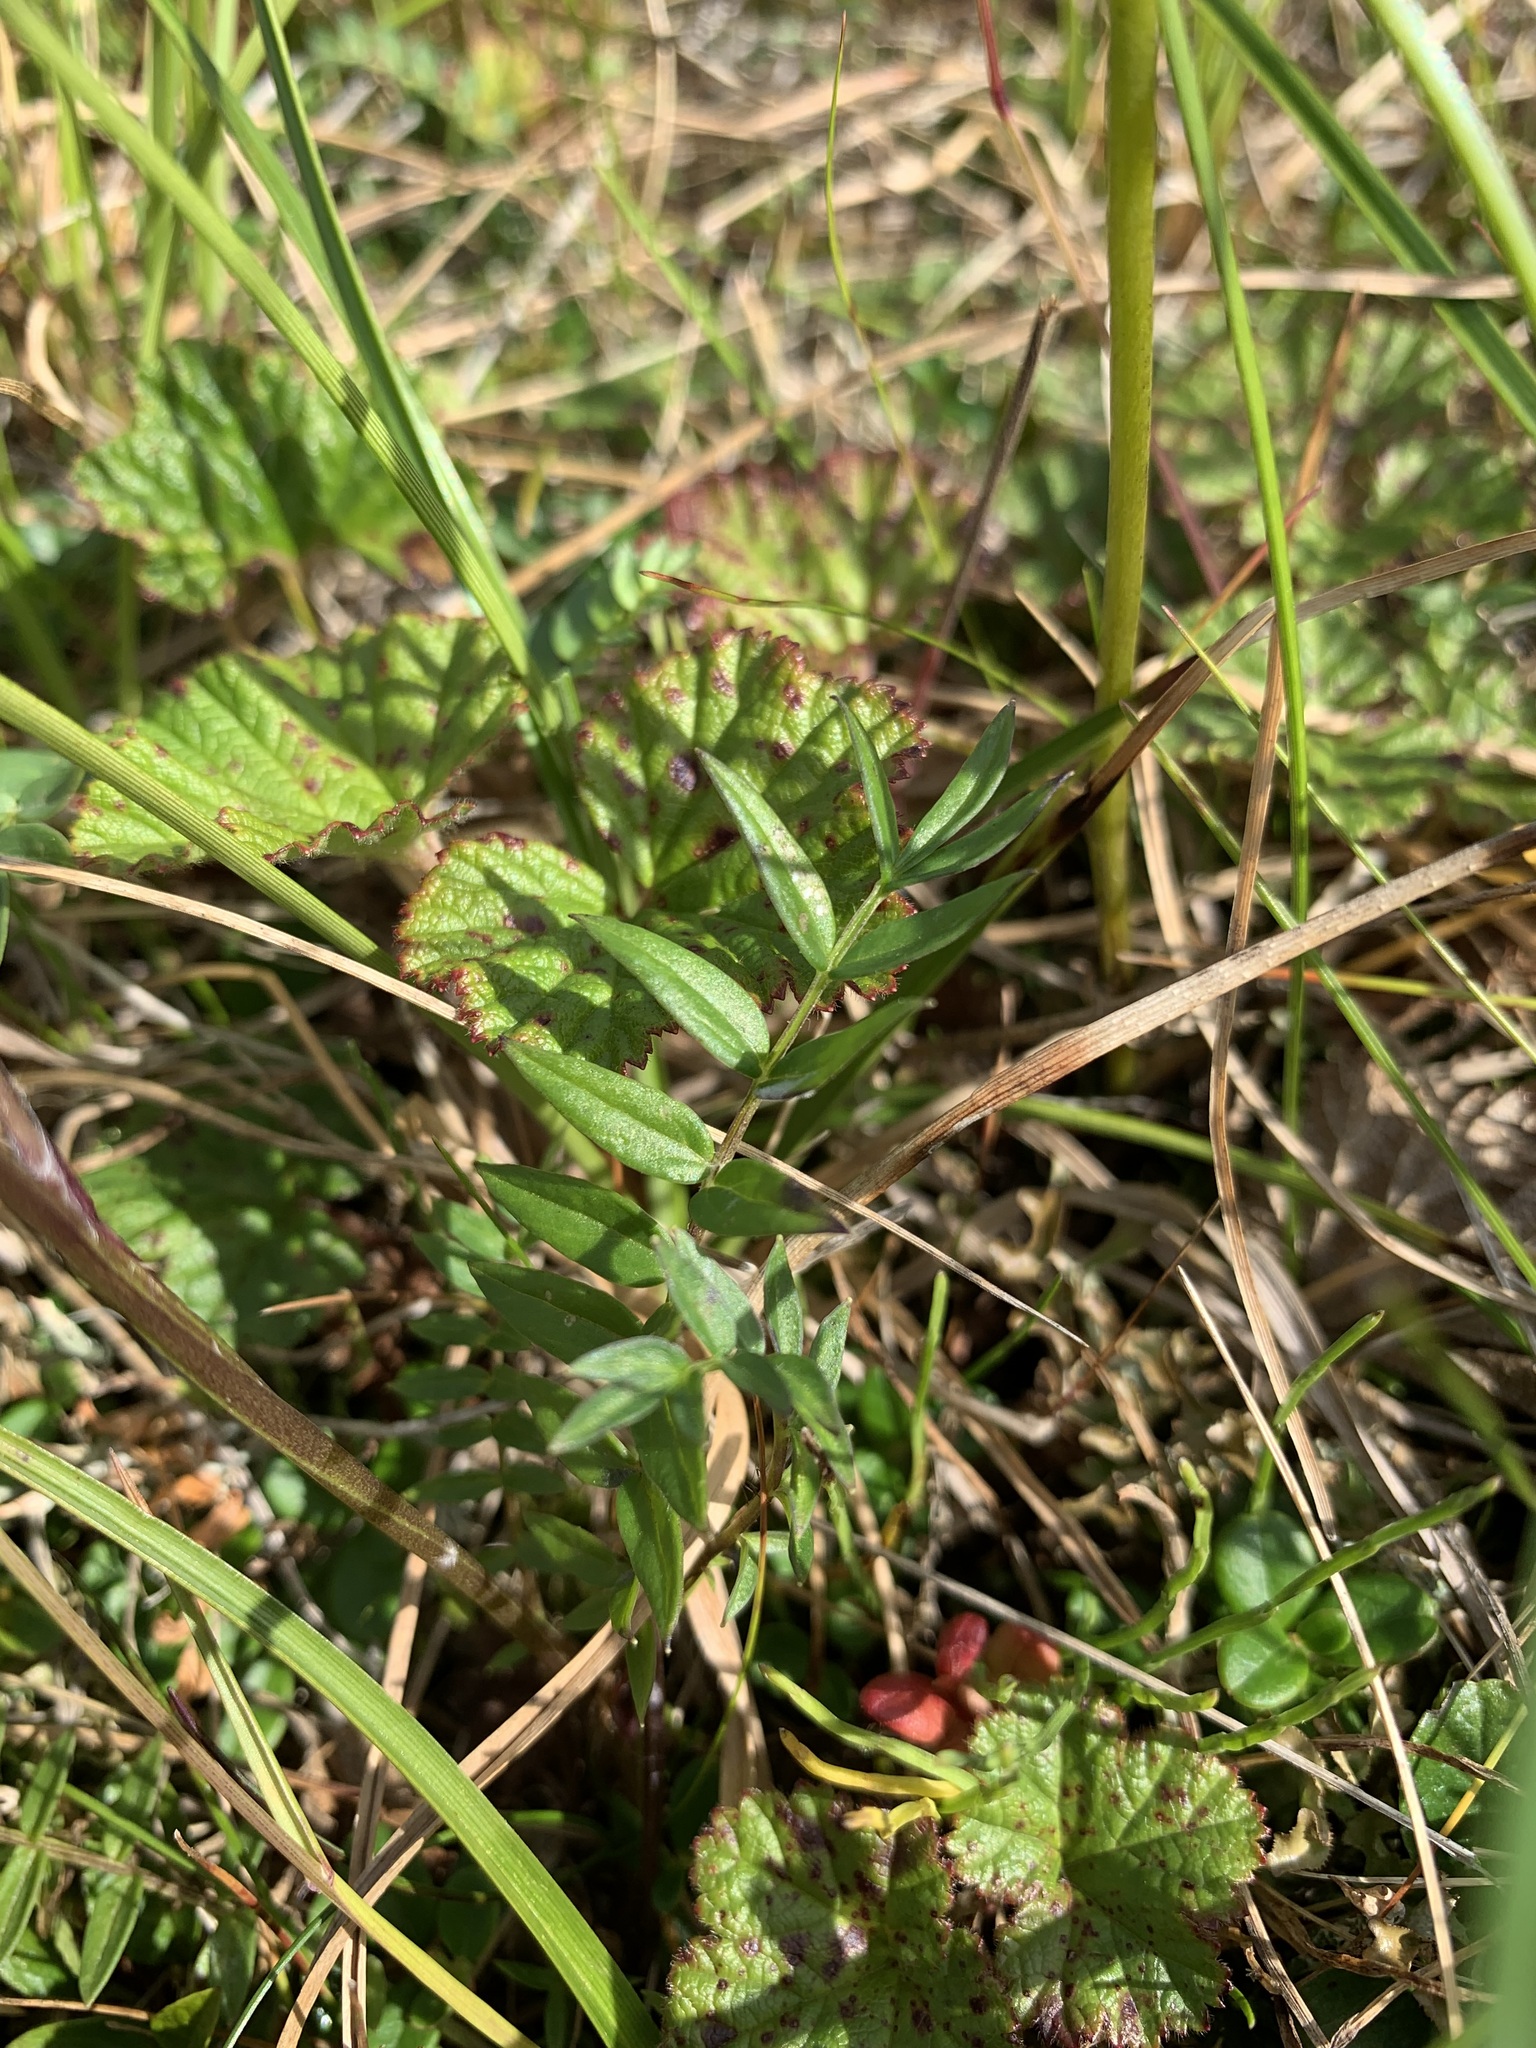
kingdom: Plantae
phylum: Tracheophyta
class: Magnoliopsida
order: Ericales
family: Polemoniaceae
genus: Polemonium
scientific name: Polemonium acutiflorum
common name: Tall jacob's-ladder
